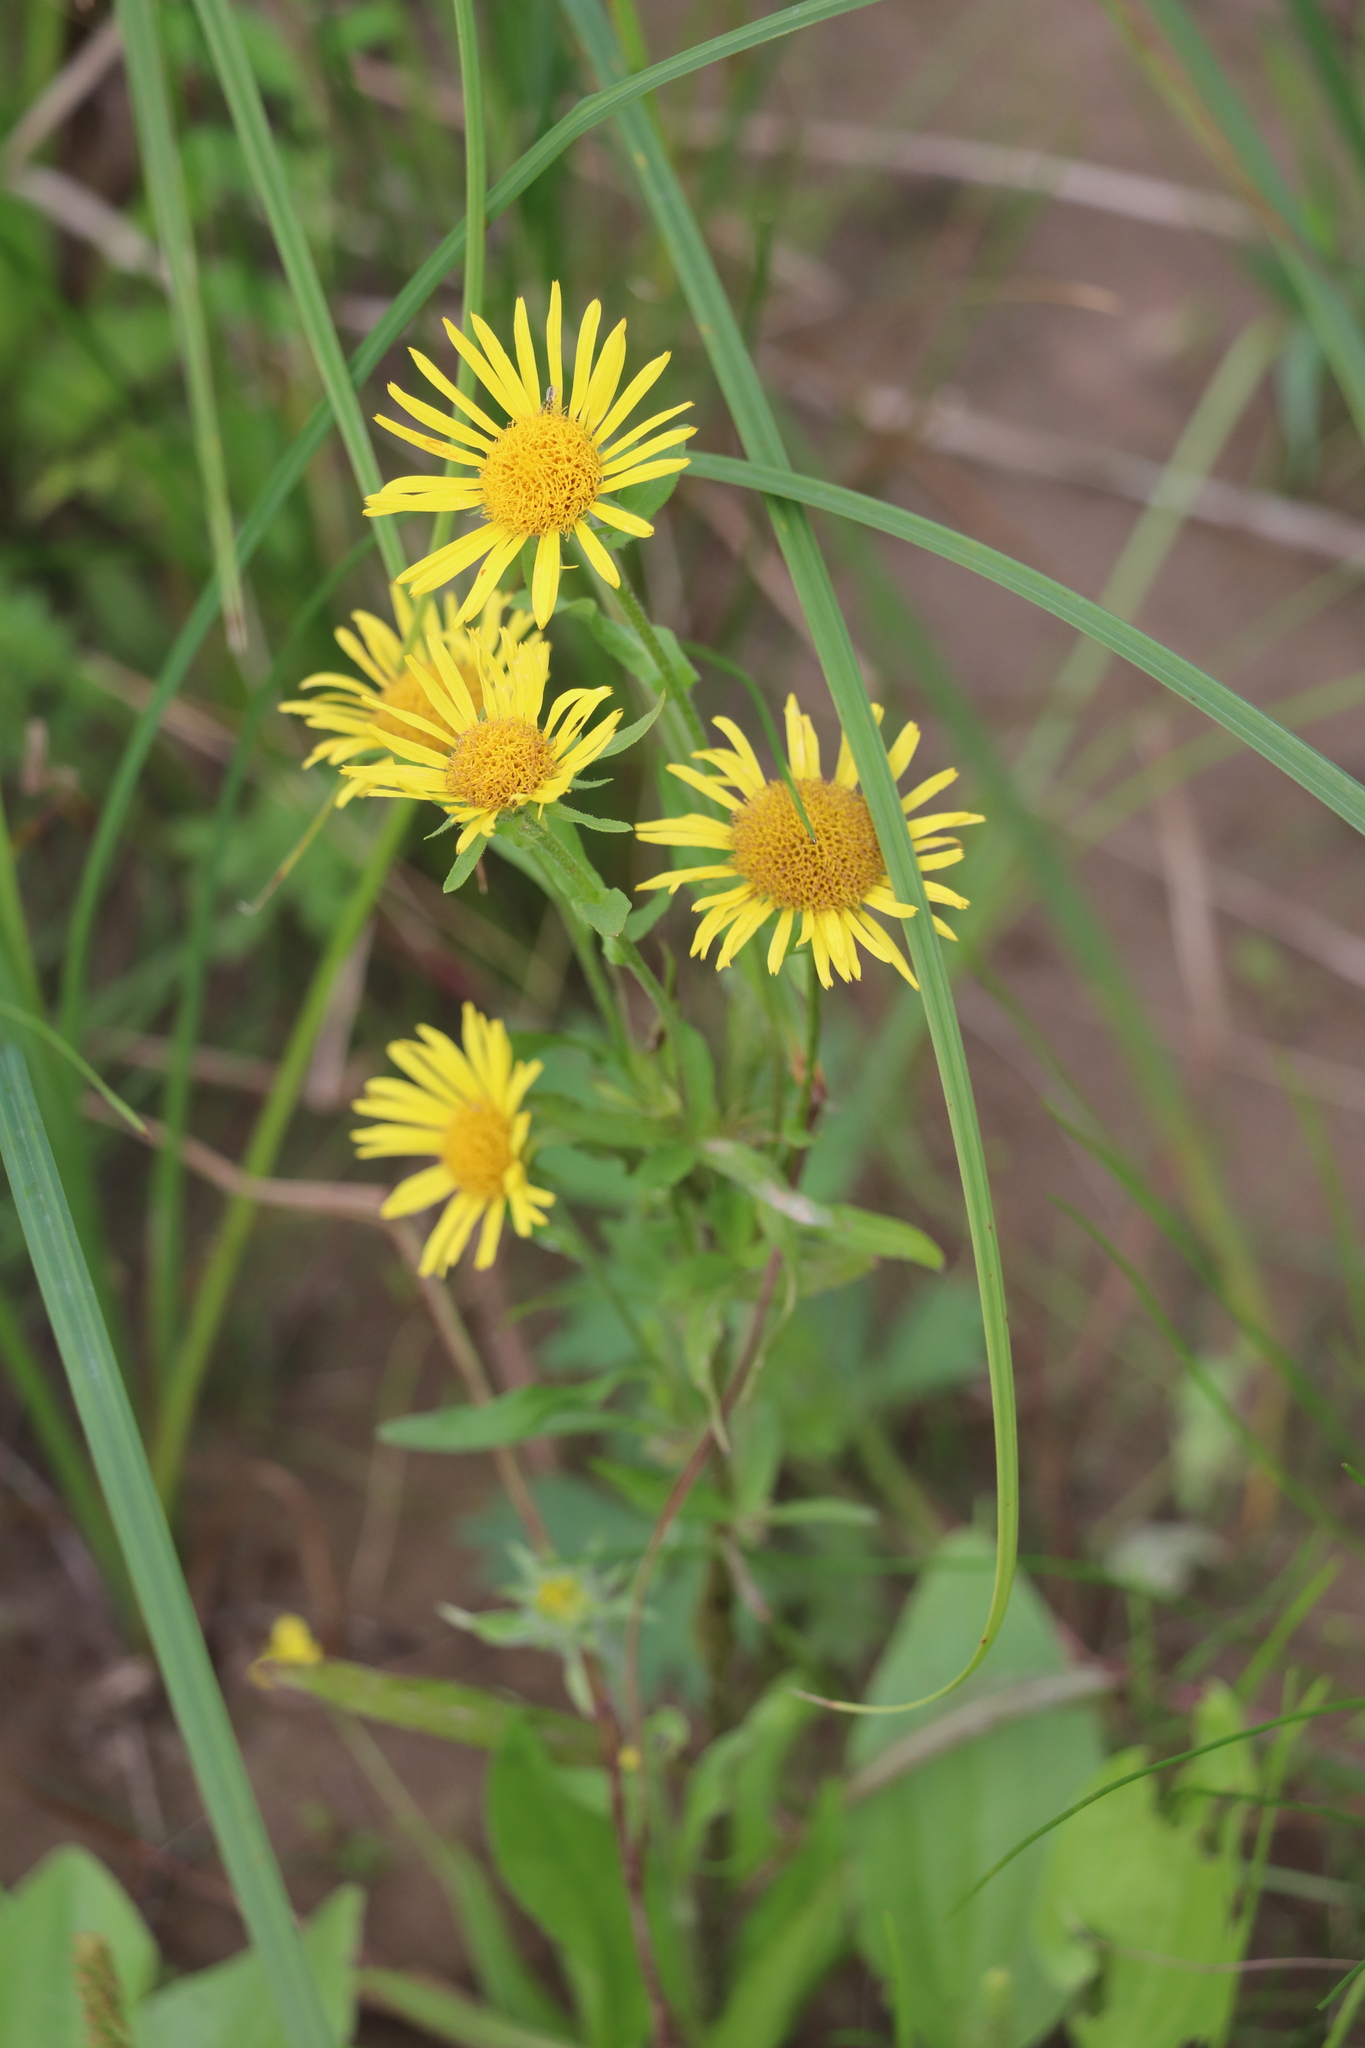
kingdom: Plantae
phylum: Tracheophyta
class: Magnoliopsida
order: Asterales
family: Asteraceae
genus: Pentanema
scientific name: Pentanema britannicum
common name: British elecampane
